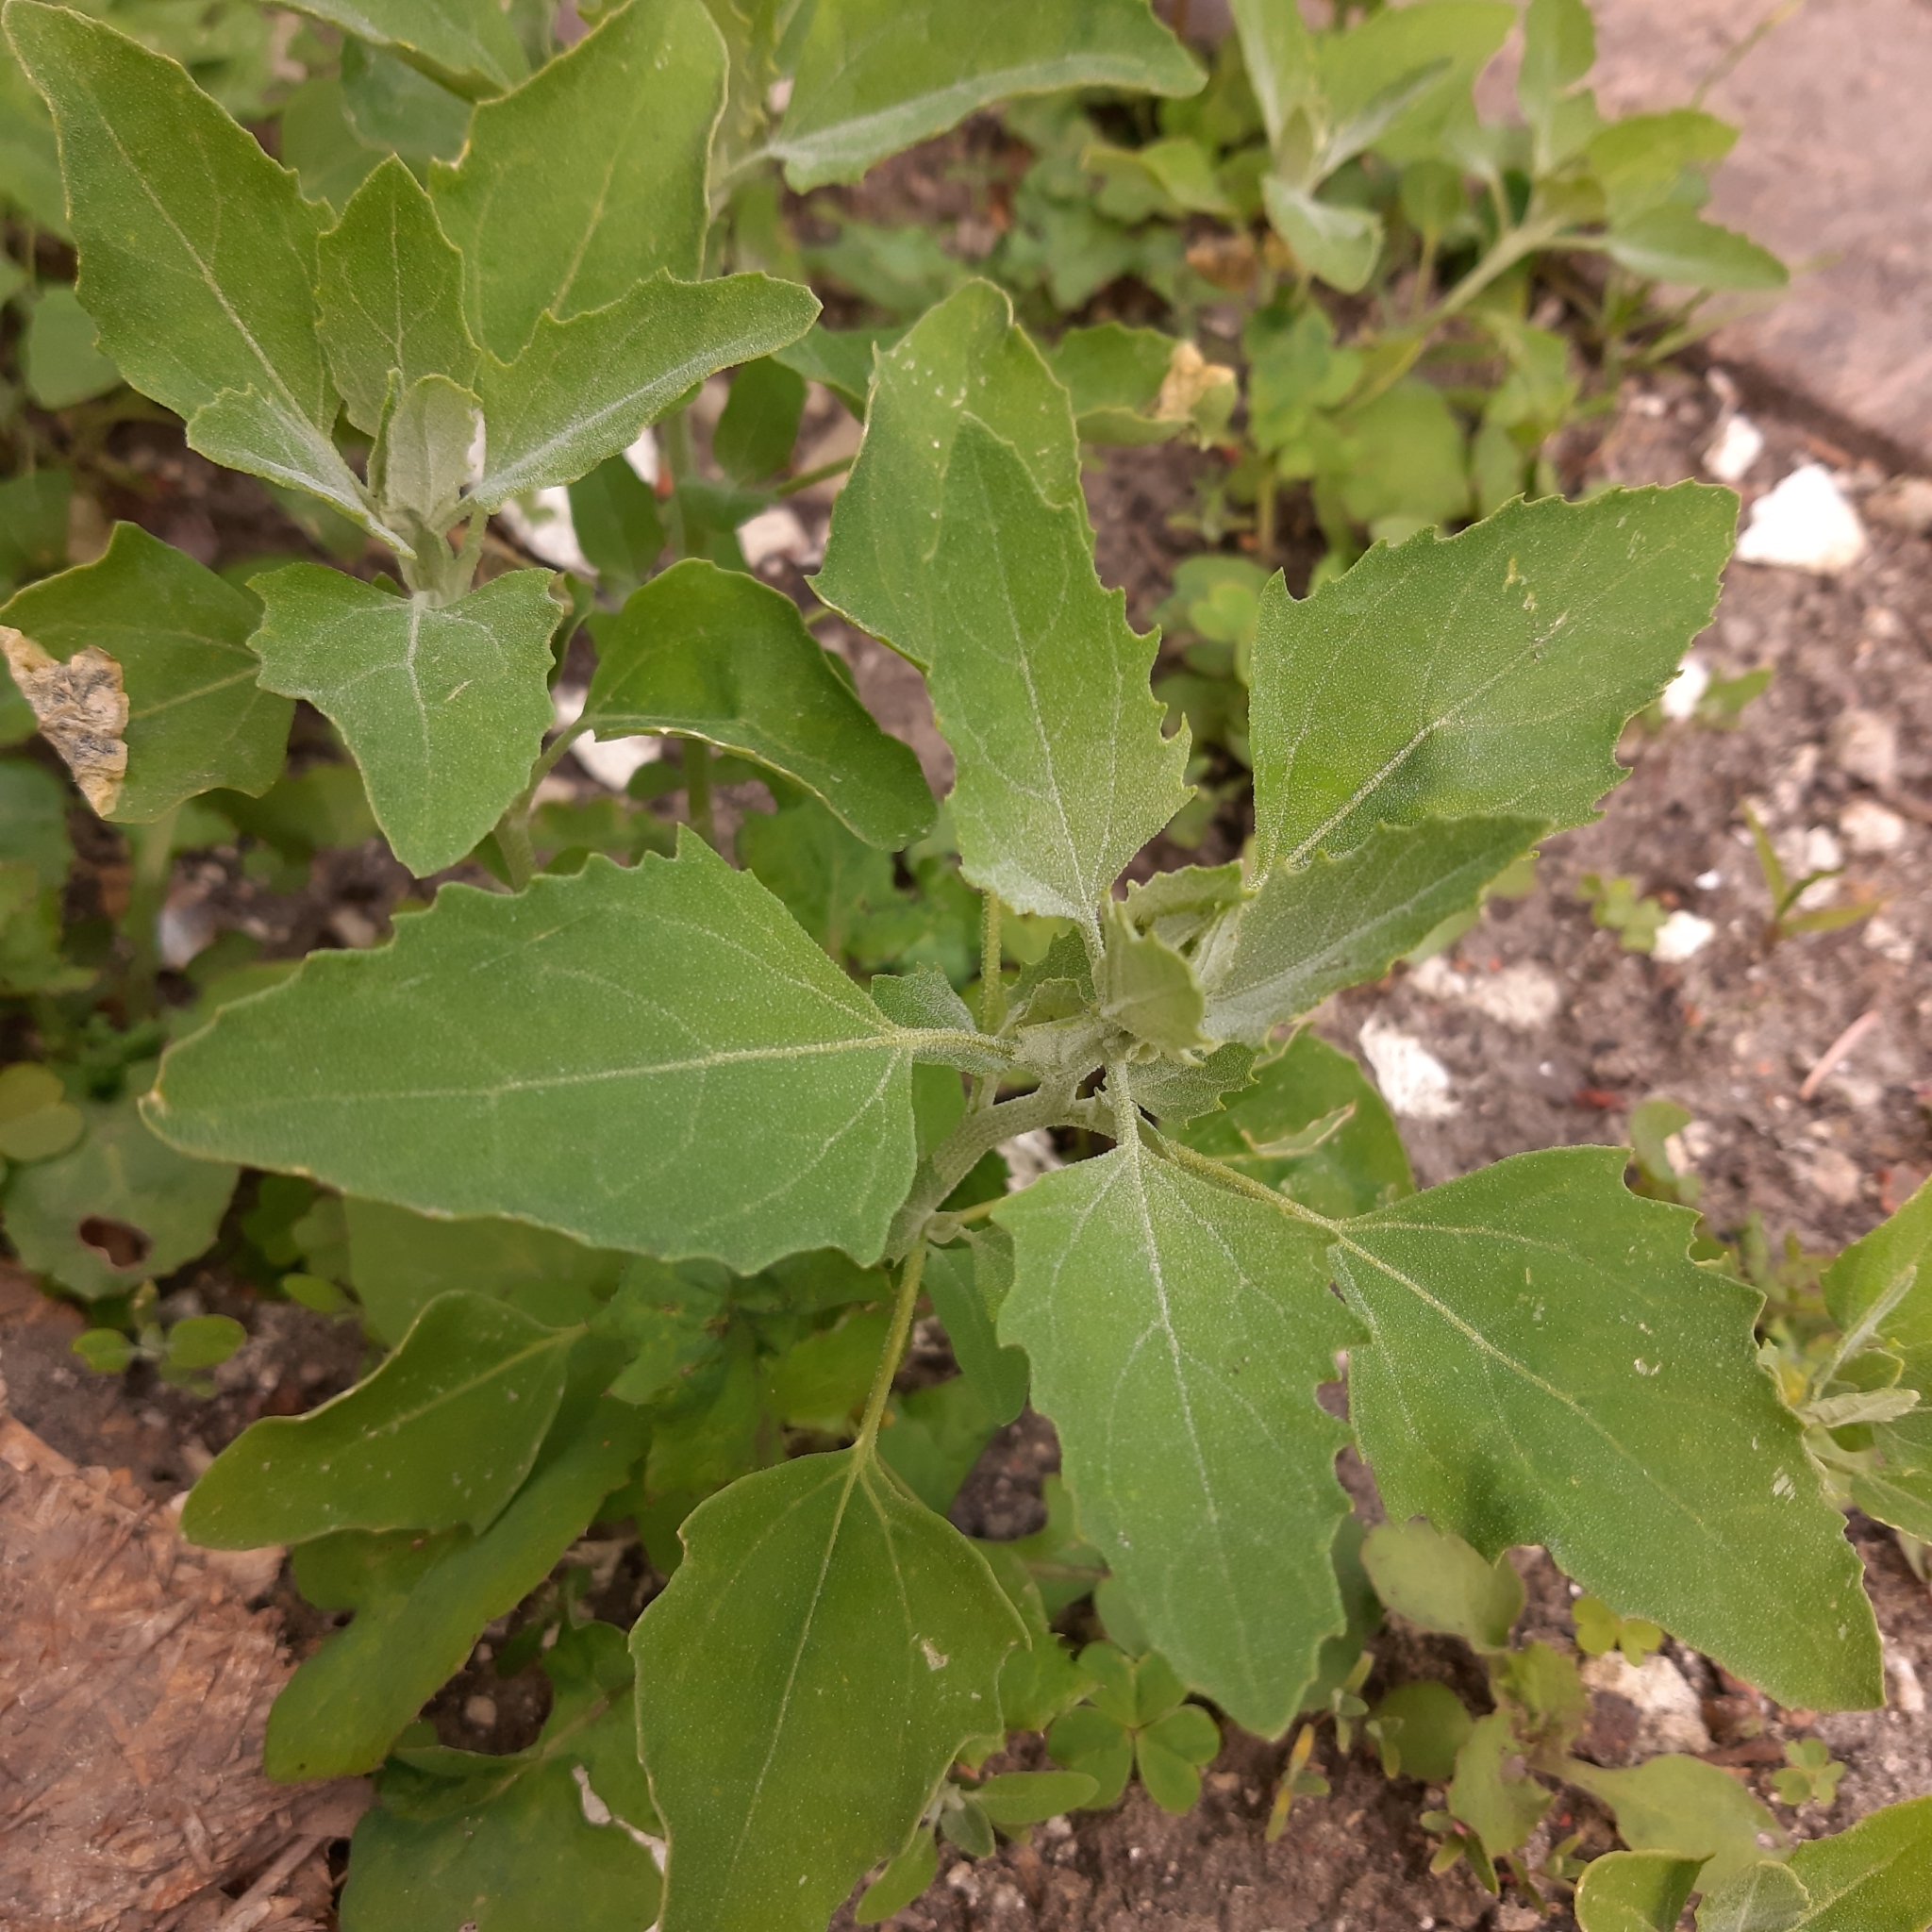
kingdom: Plantae
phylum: Tracheophyta
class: Magnoliopsida
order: Caryophyllales
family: Amaranthaceae
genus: Chenopodium
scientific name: Chenopodium album
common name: Fat-hen
